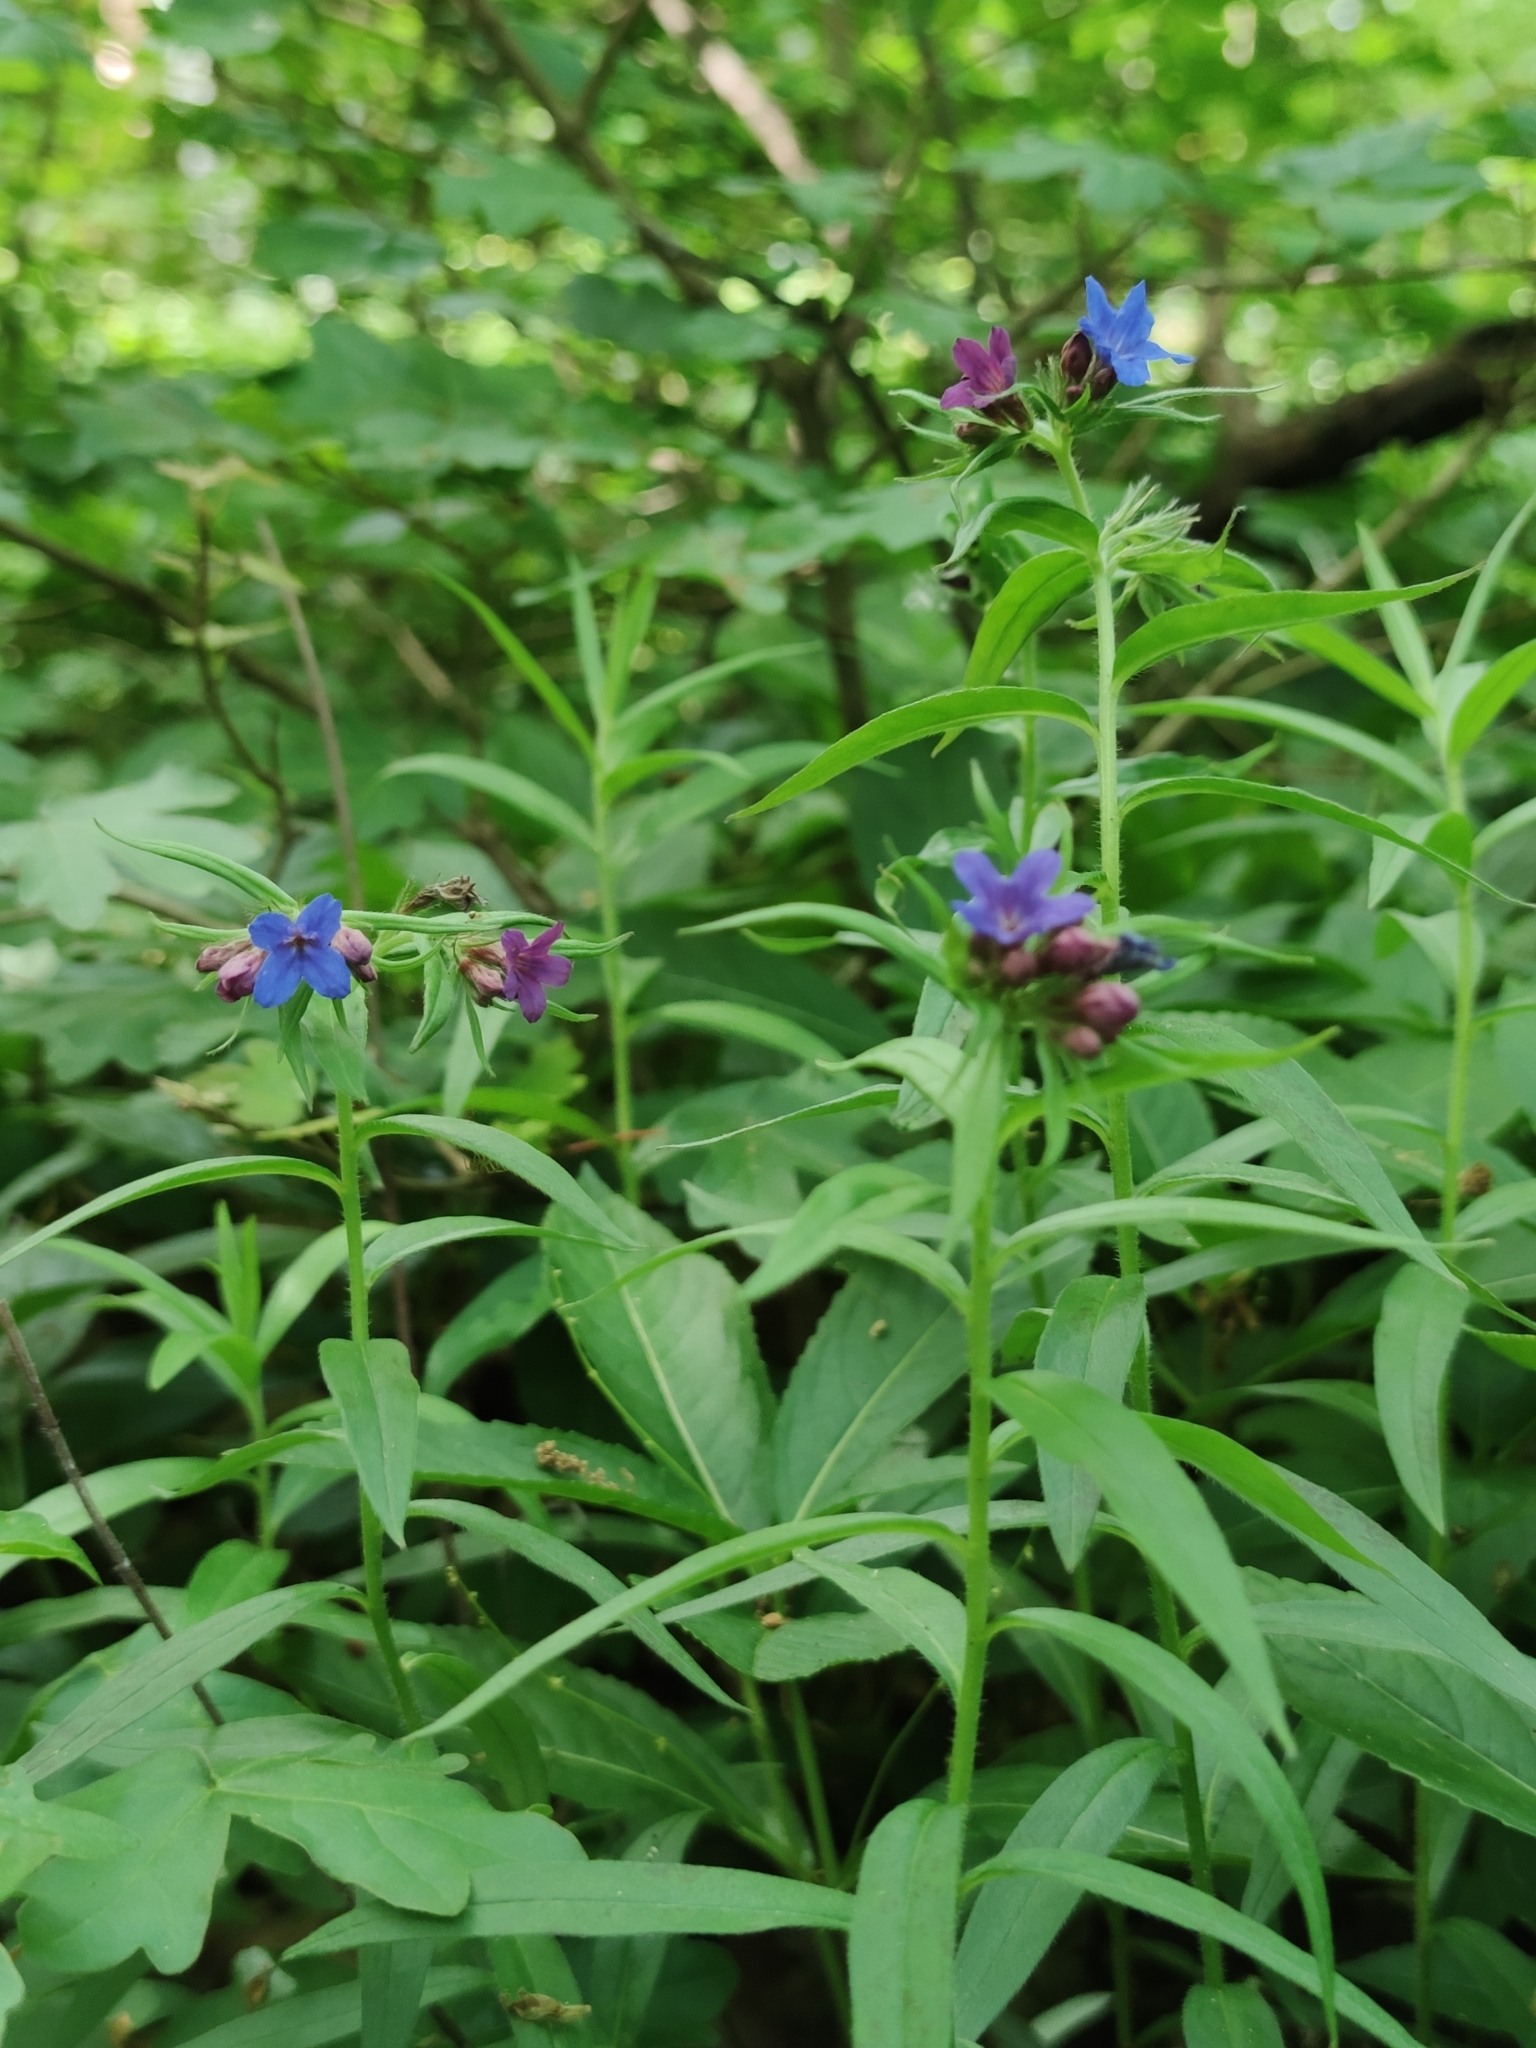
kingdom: Plantae
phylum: Tracheophyta
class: Magnoliopsida
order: Boraginales
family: Boraginaceae
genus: Aegonychon
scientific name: Aegonychon purpurocaeruleum
